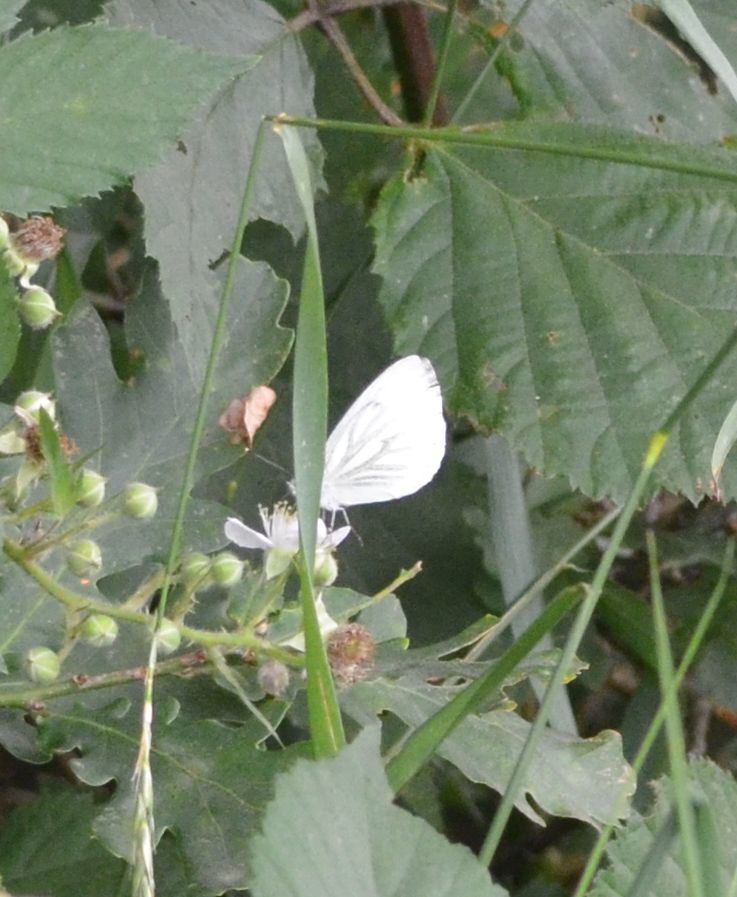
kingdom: Animalia
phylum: Arthropoda
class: Insecta
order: Lepidoptera
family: Pieridae
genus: Pieris
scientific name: Pieris napi
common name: Green-veined white
